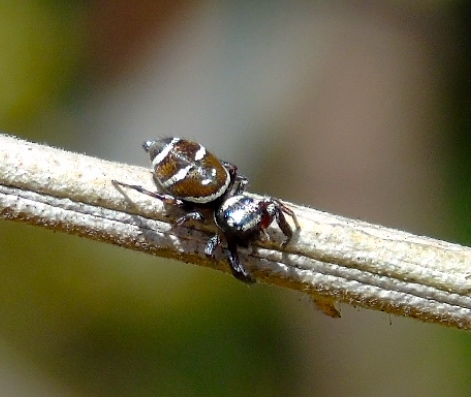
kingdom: Animalia
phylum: Arthropoda
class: Arachnida
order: Araneae
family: Salticidae
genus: Sassacus
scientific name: Sassacus
